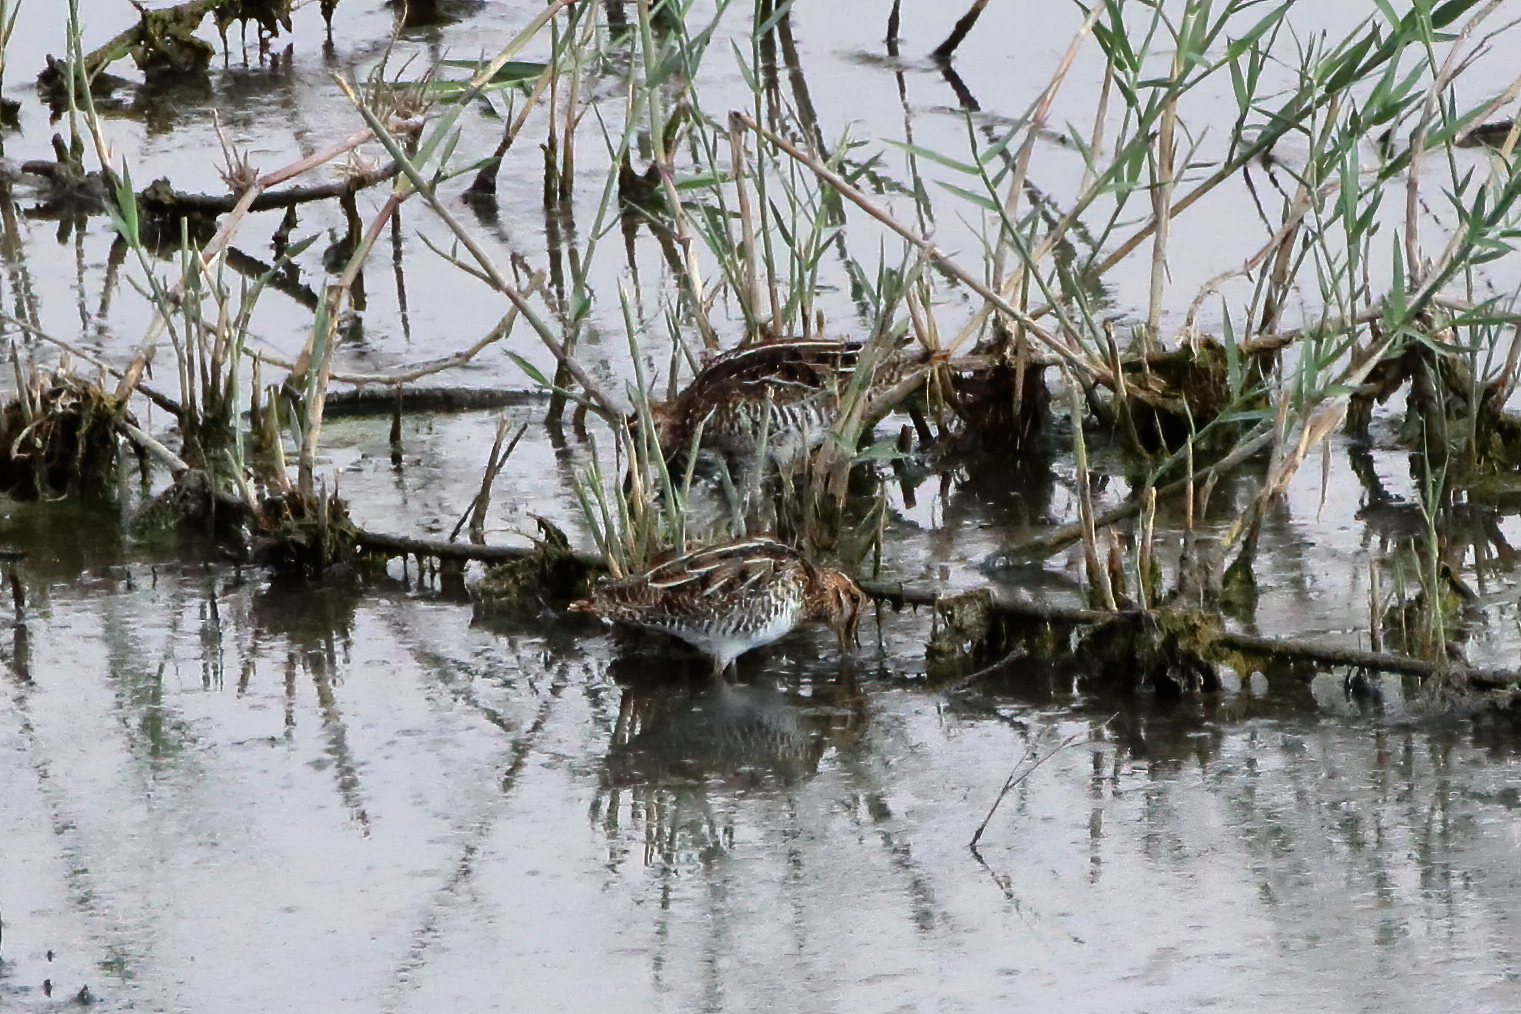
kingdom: Animalia
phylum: Chordata
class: Aves
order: Charadriiformes
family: Scolopacidae
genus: Gallinago
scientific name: Gallinago delicata
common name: Wilson's snipe
